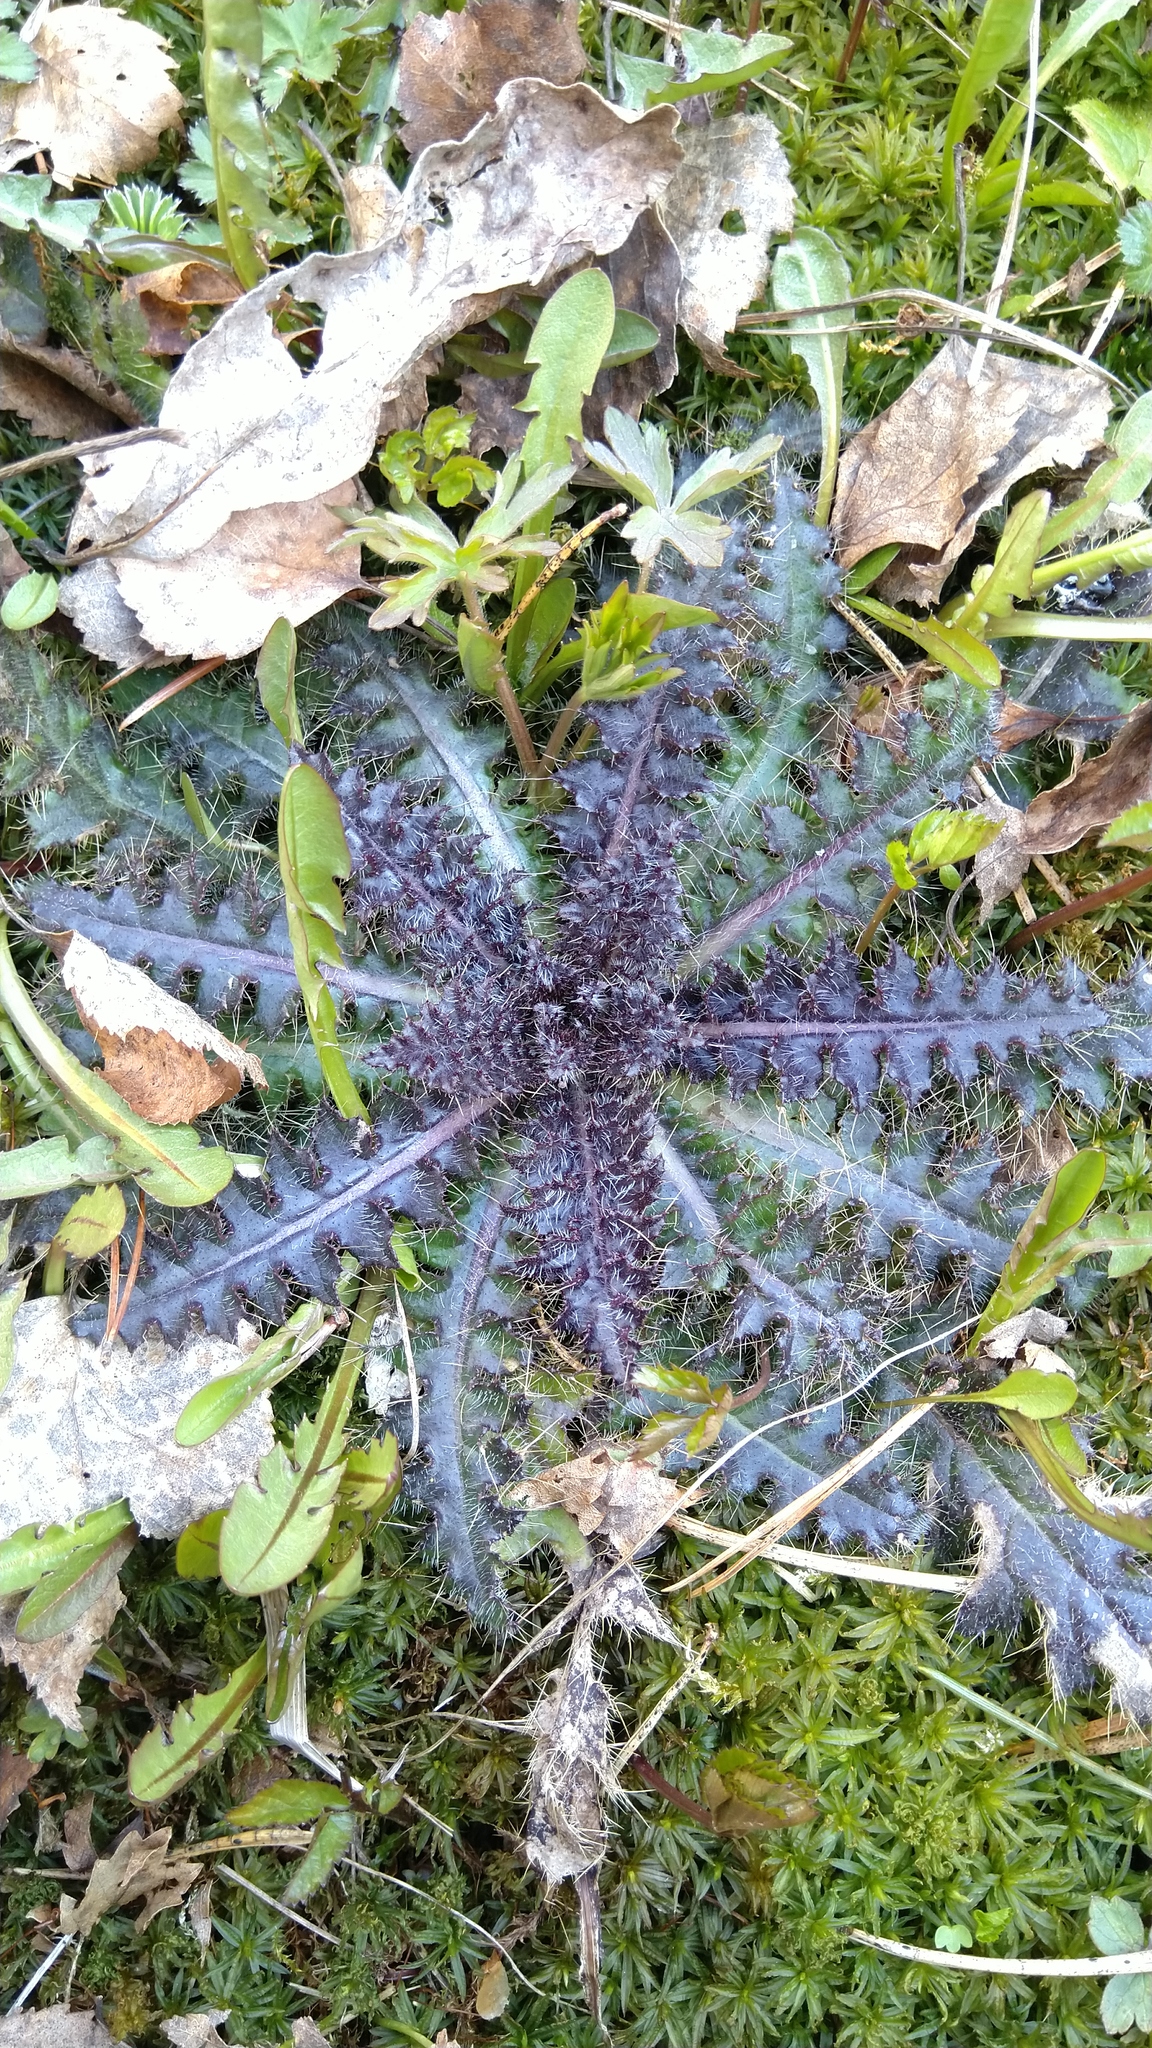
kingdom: Plantae
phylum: Tracheophyta
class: Magnoliopsida
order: Asterales
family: Asteraceae
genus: Cirsium
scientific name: Cirsium palustre
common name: Marsh thistle
